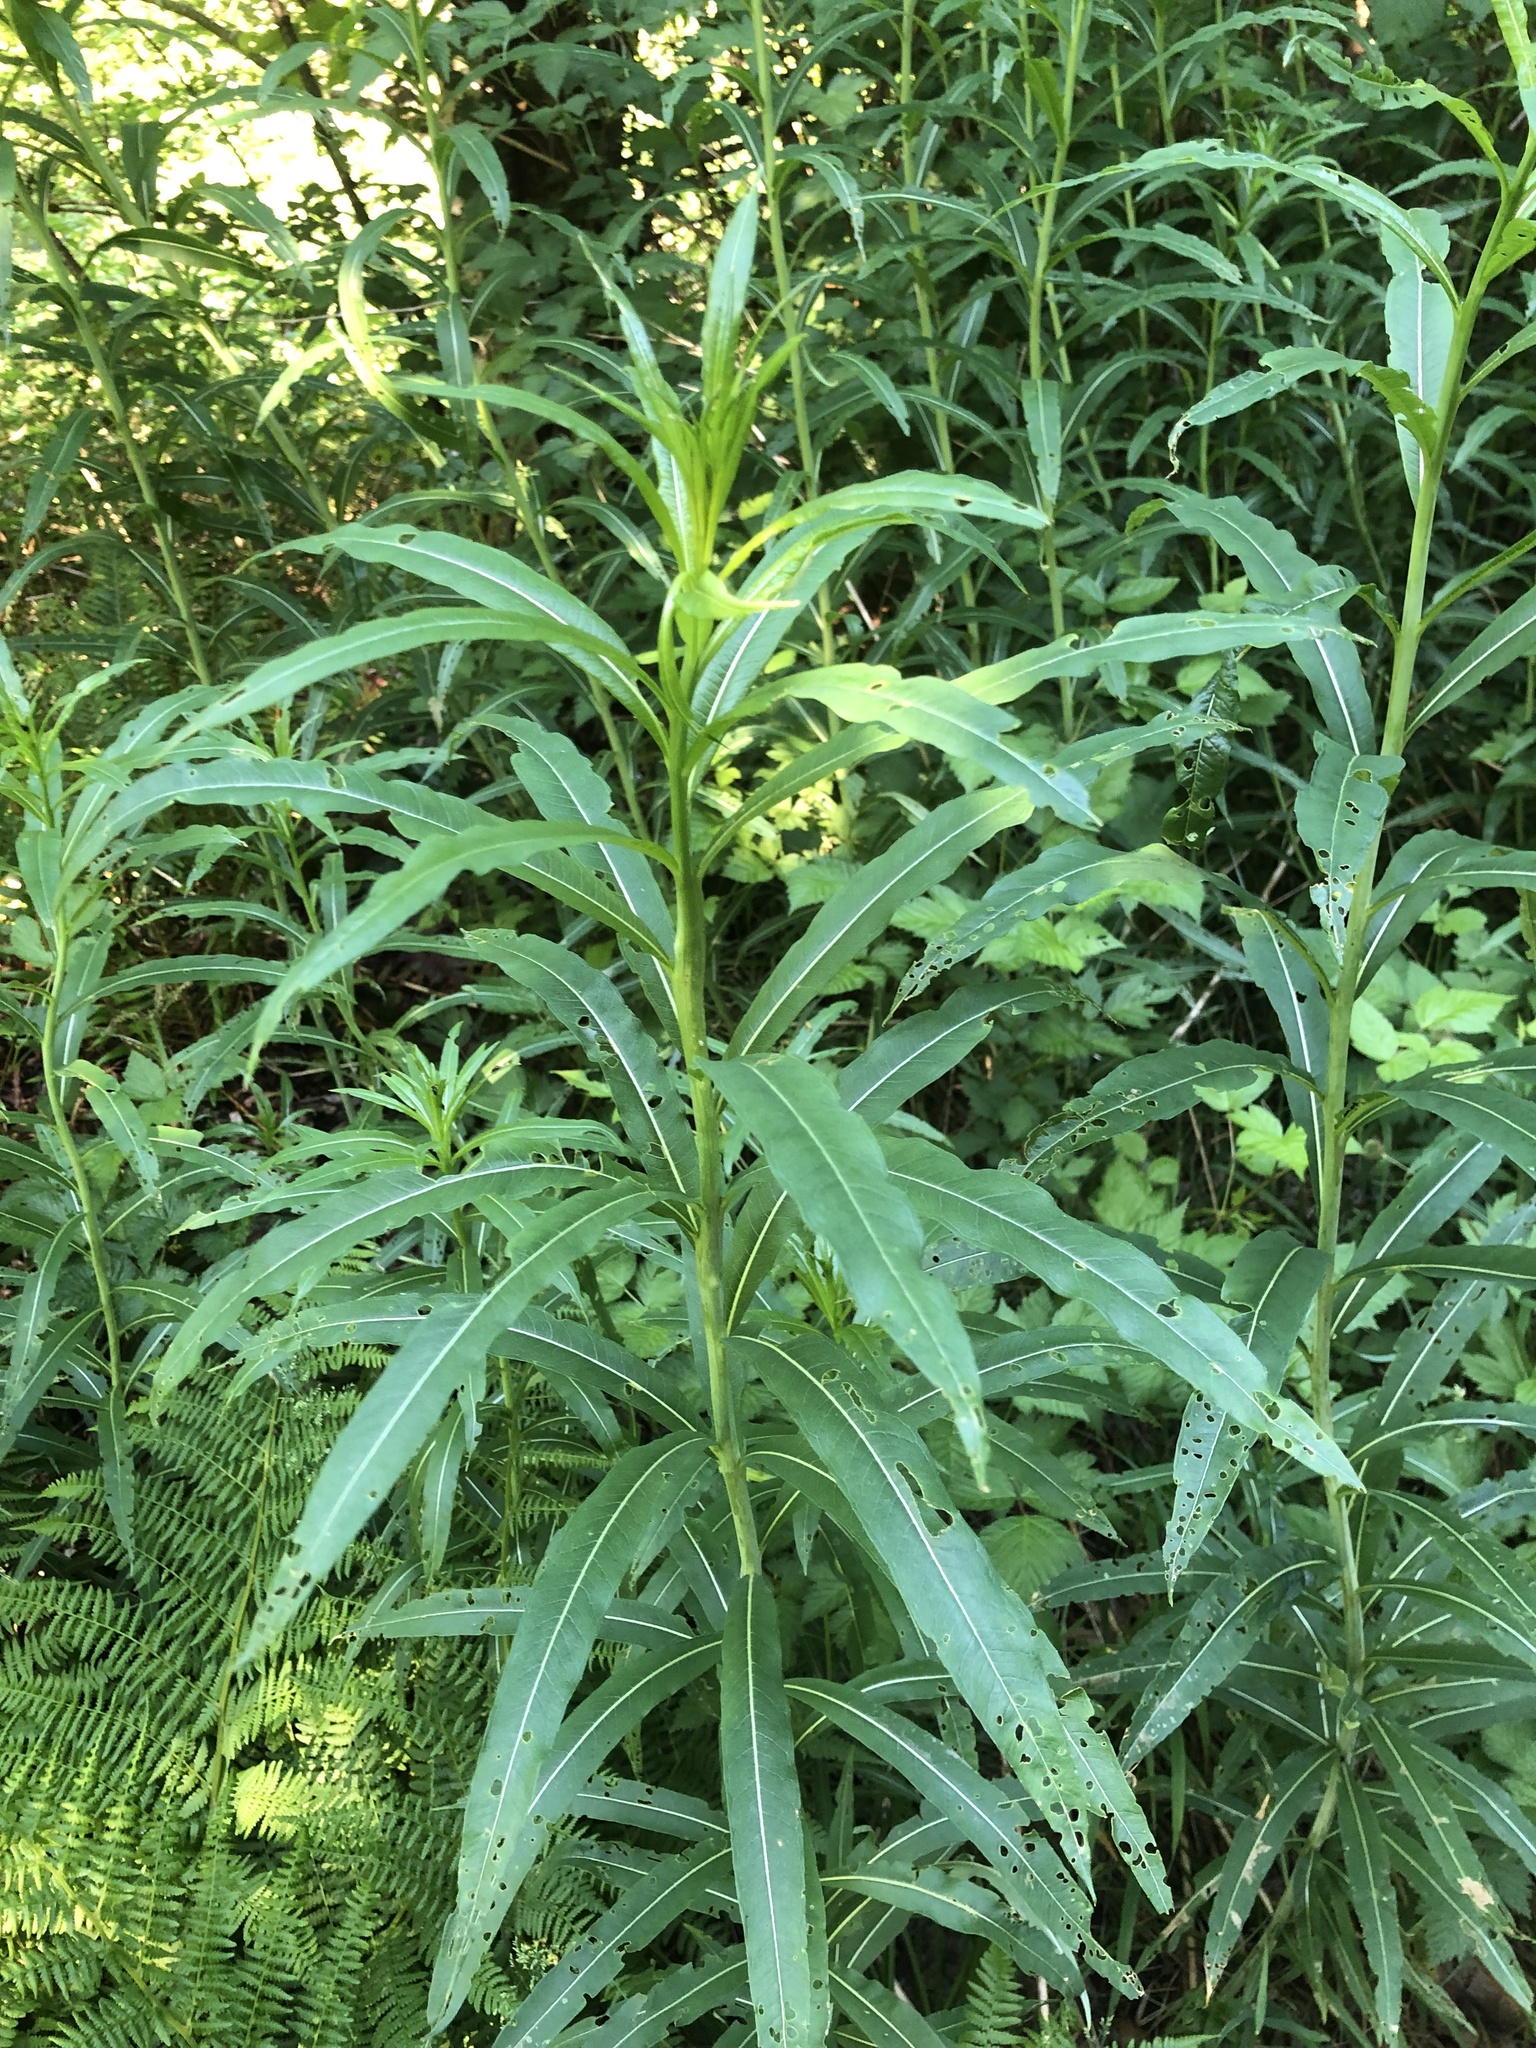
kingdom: Plantae
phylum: Tracheophyta
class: Magnoliopsida
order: Myrtales
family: Onagraceae
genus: Chamaenerion
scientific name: Chamaenerion angustifolium
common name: Fireweed
